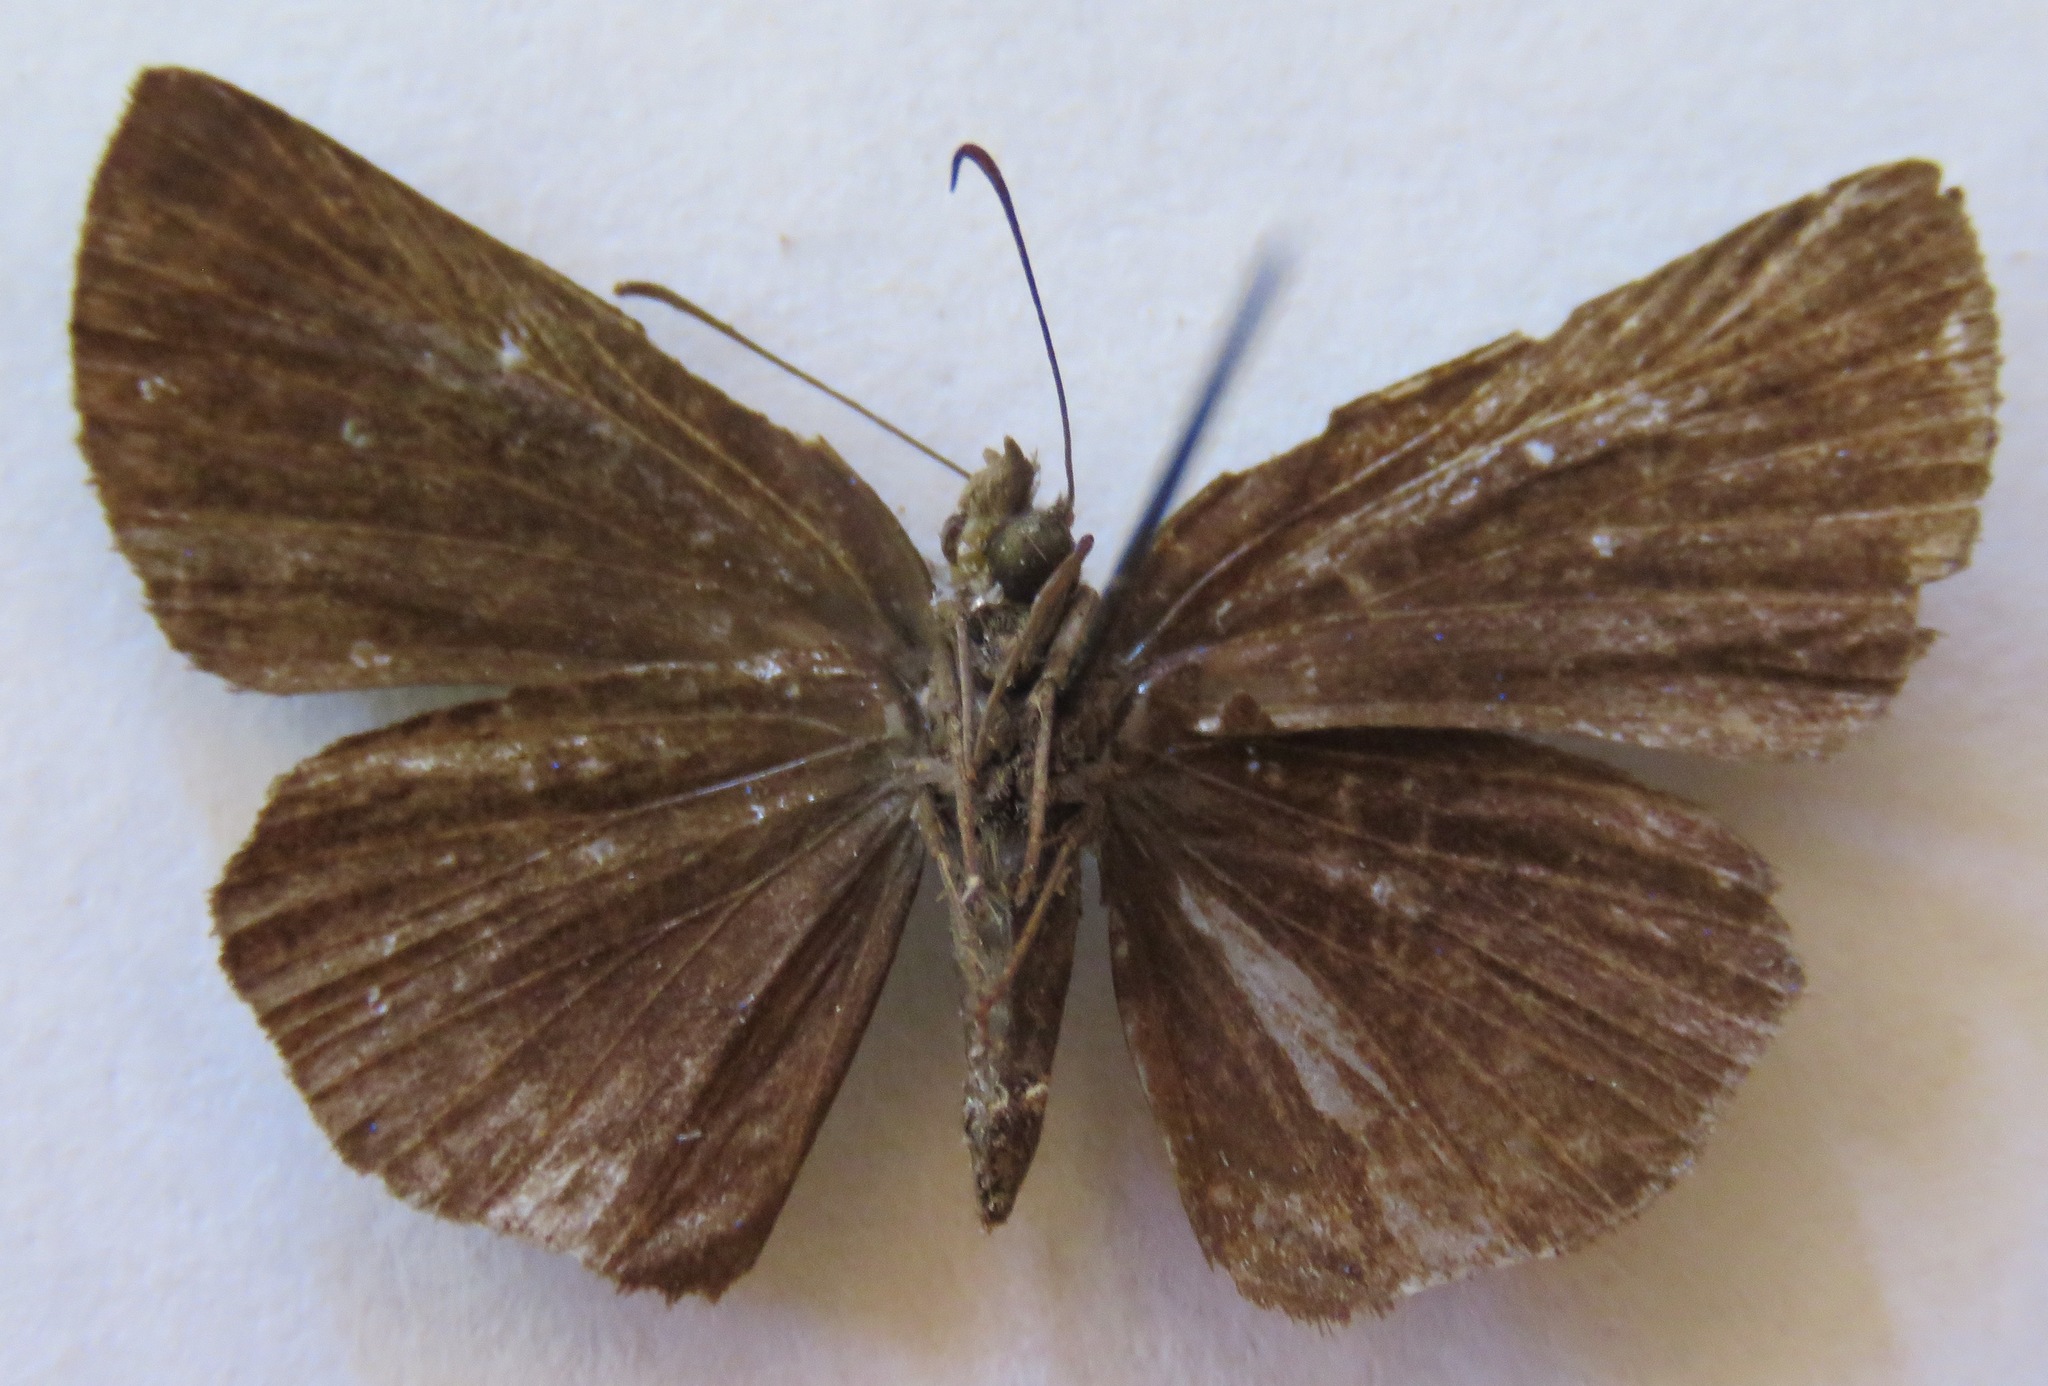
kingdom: Animalia
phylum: Arthropoda
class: Insecta
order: Lepidoptera
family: Hesperiidae
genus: Paches
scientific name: Paches loxus
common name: Glorious blue-skipper
